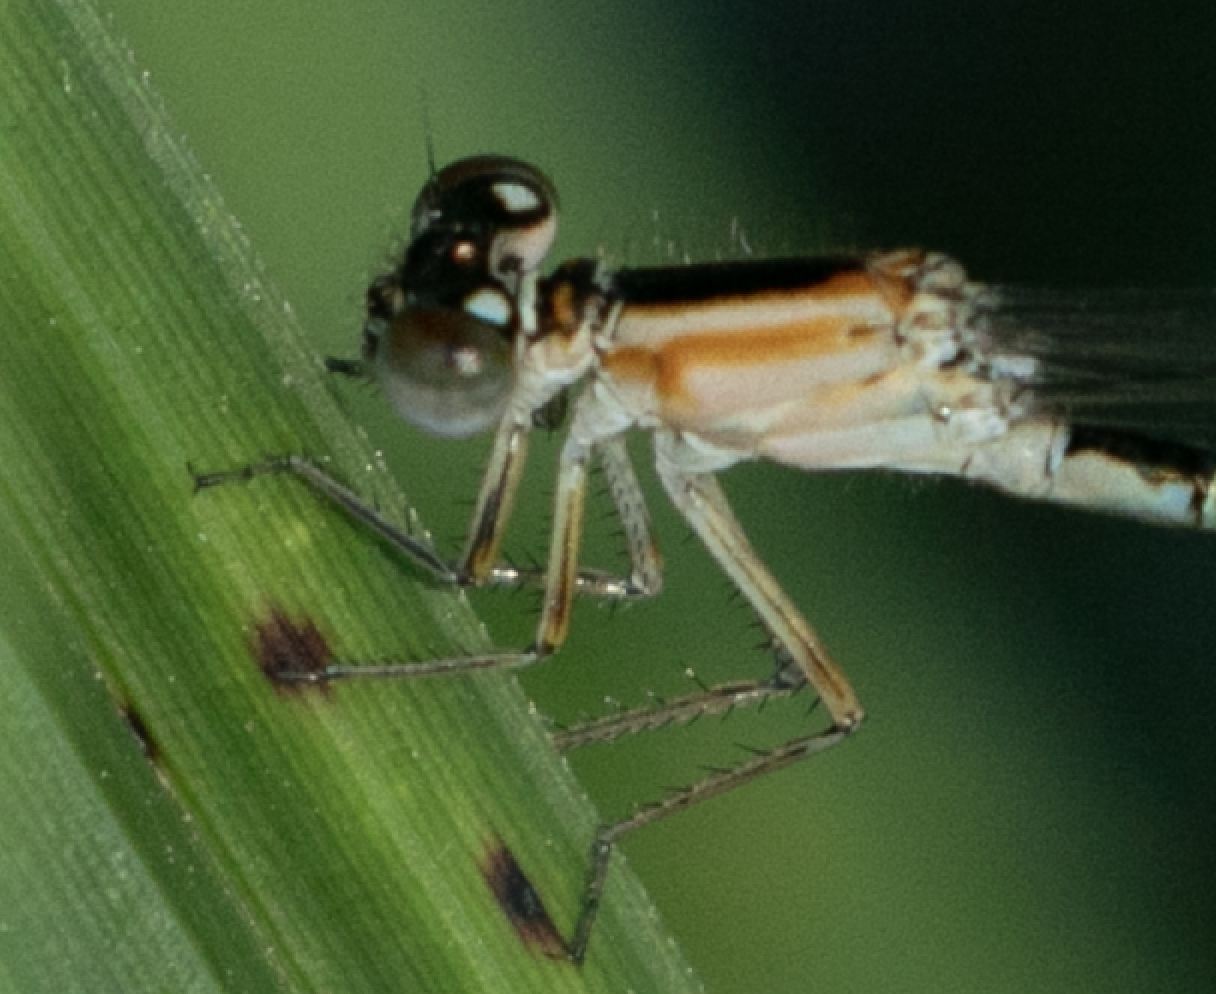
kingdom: Animalia
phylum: Arthropoda
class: Insecta
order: Odonata
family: Coenagrionidae
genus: Ischnura
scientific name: Ischnura elegans
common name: Blue-tailed damselfly
